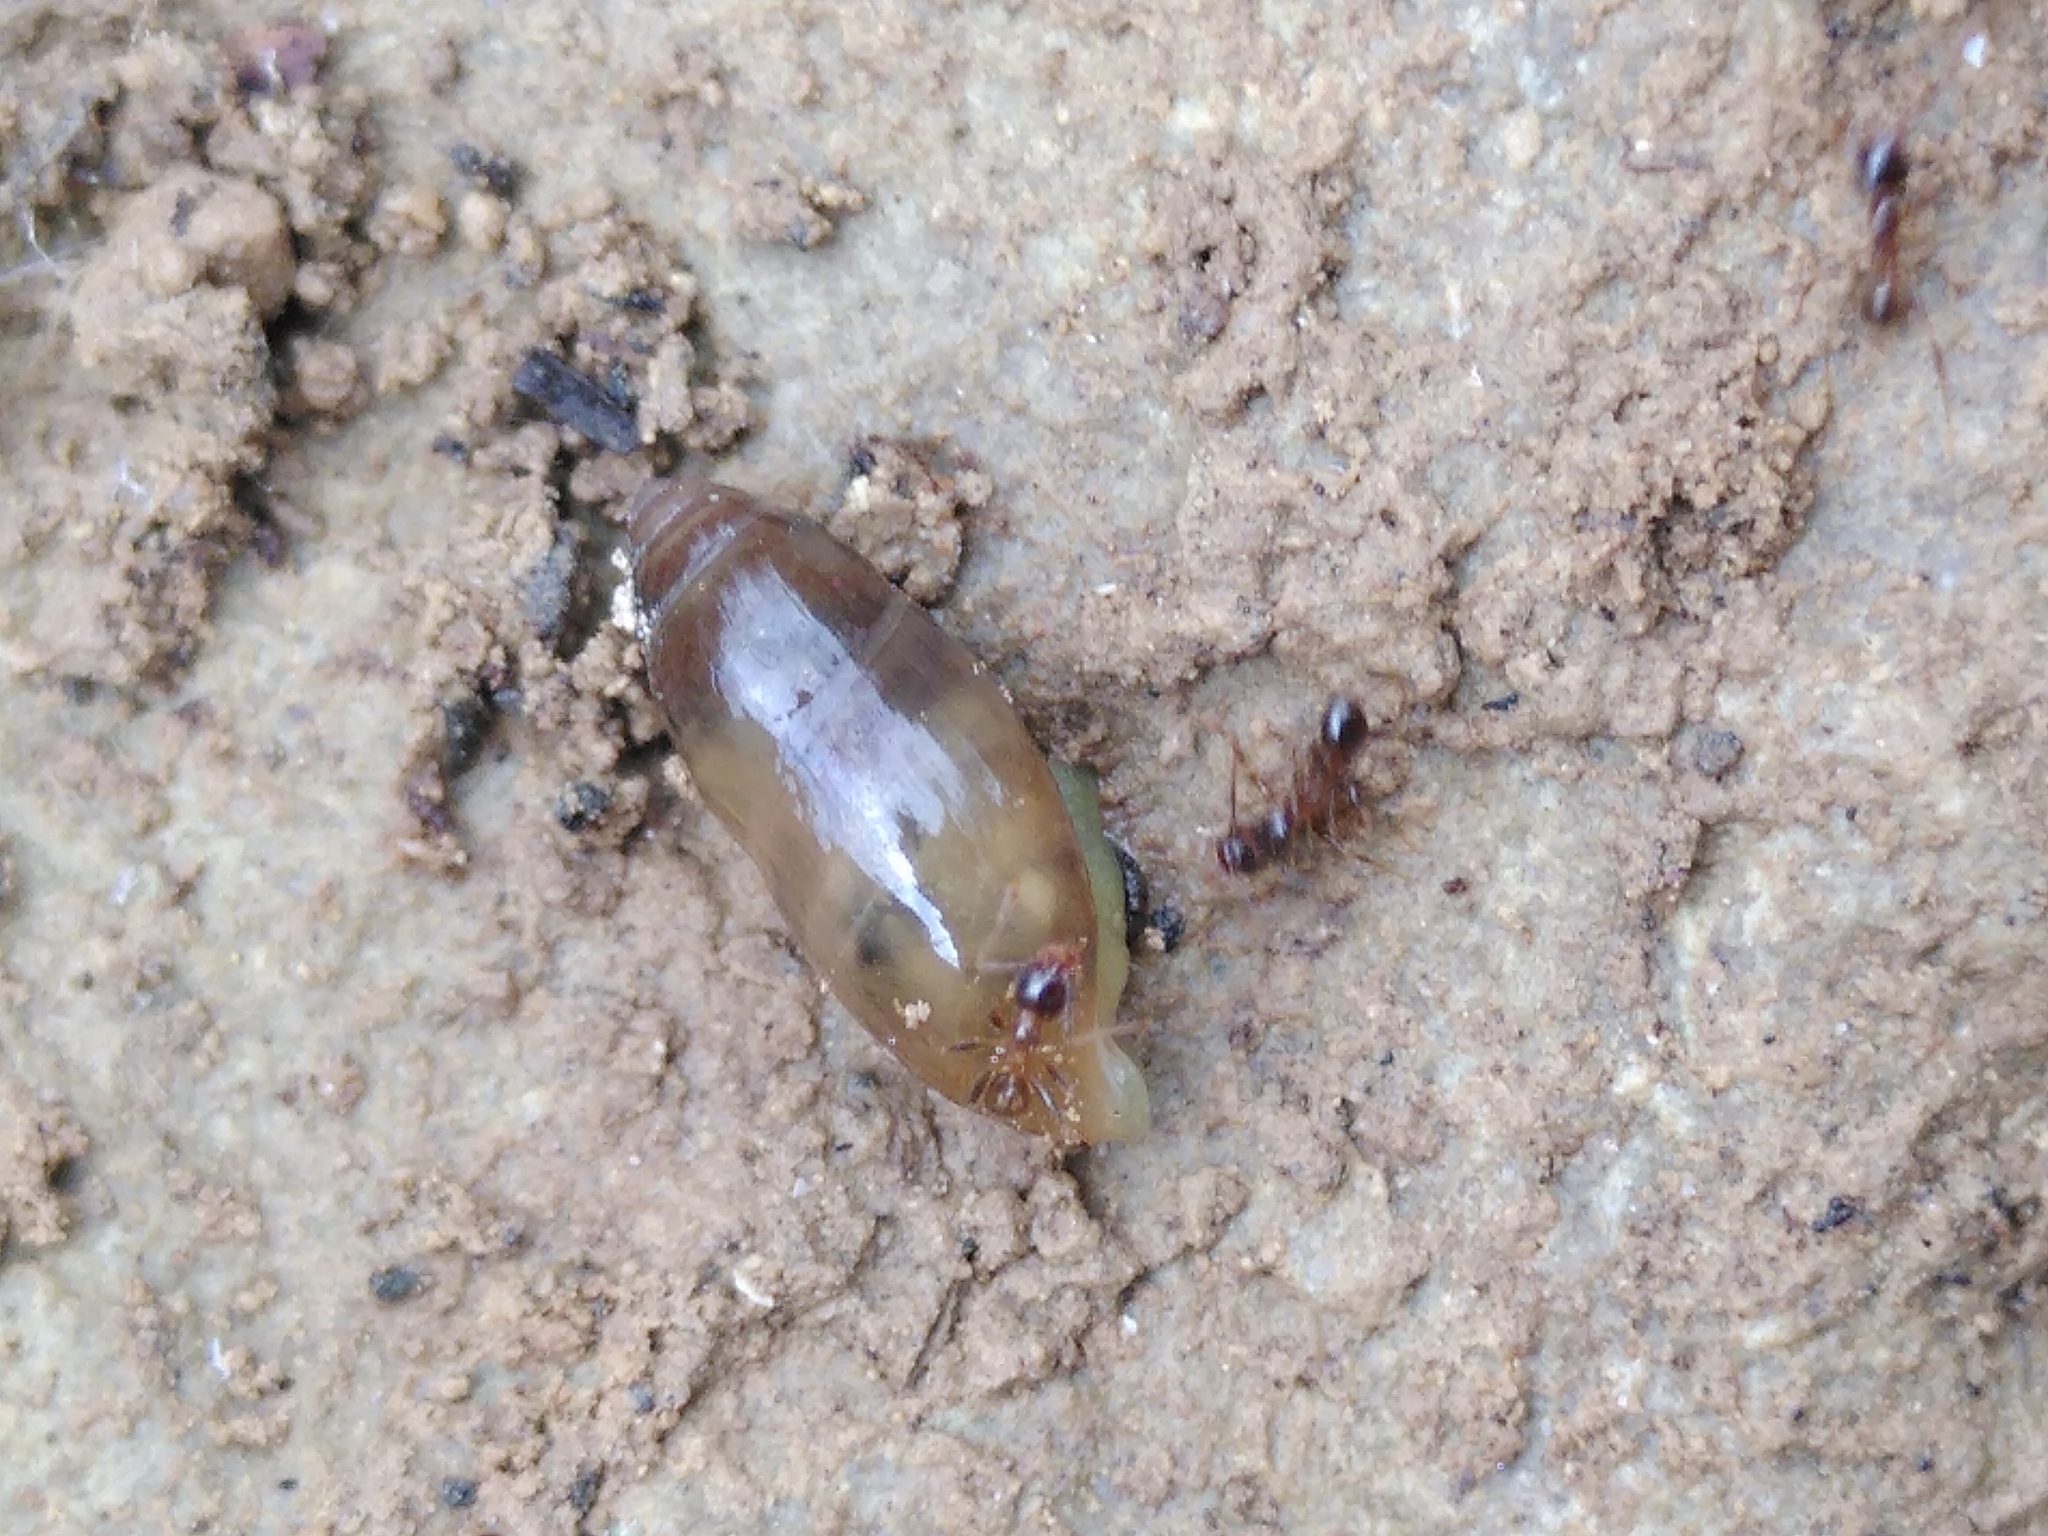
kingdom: Animalia
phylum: Mollusca
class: Gastropoda
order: Stylommatophora
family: Ferussaciidae
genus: Ferussacia
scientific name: Ferussacia folliculum
